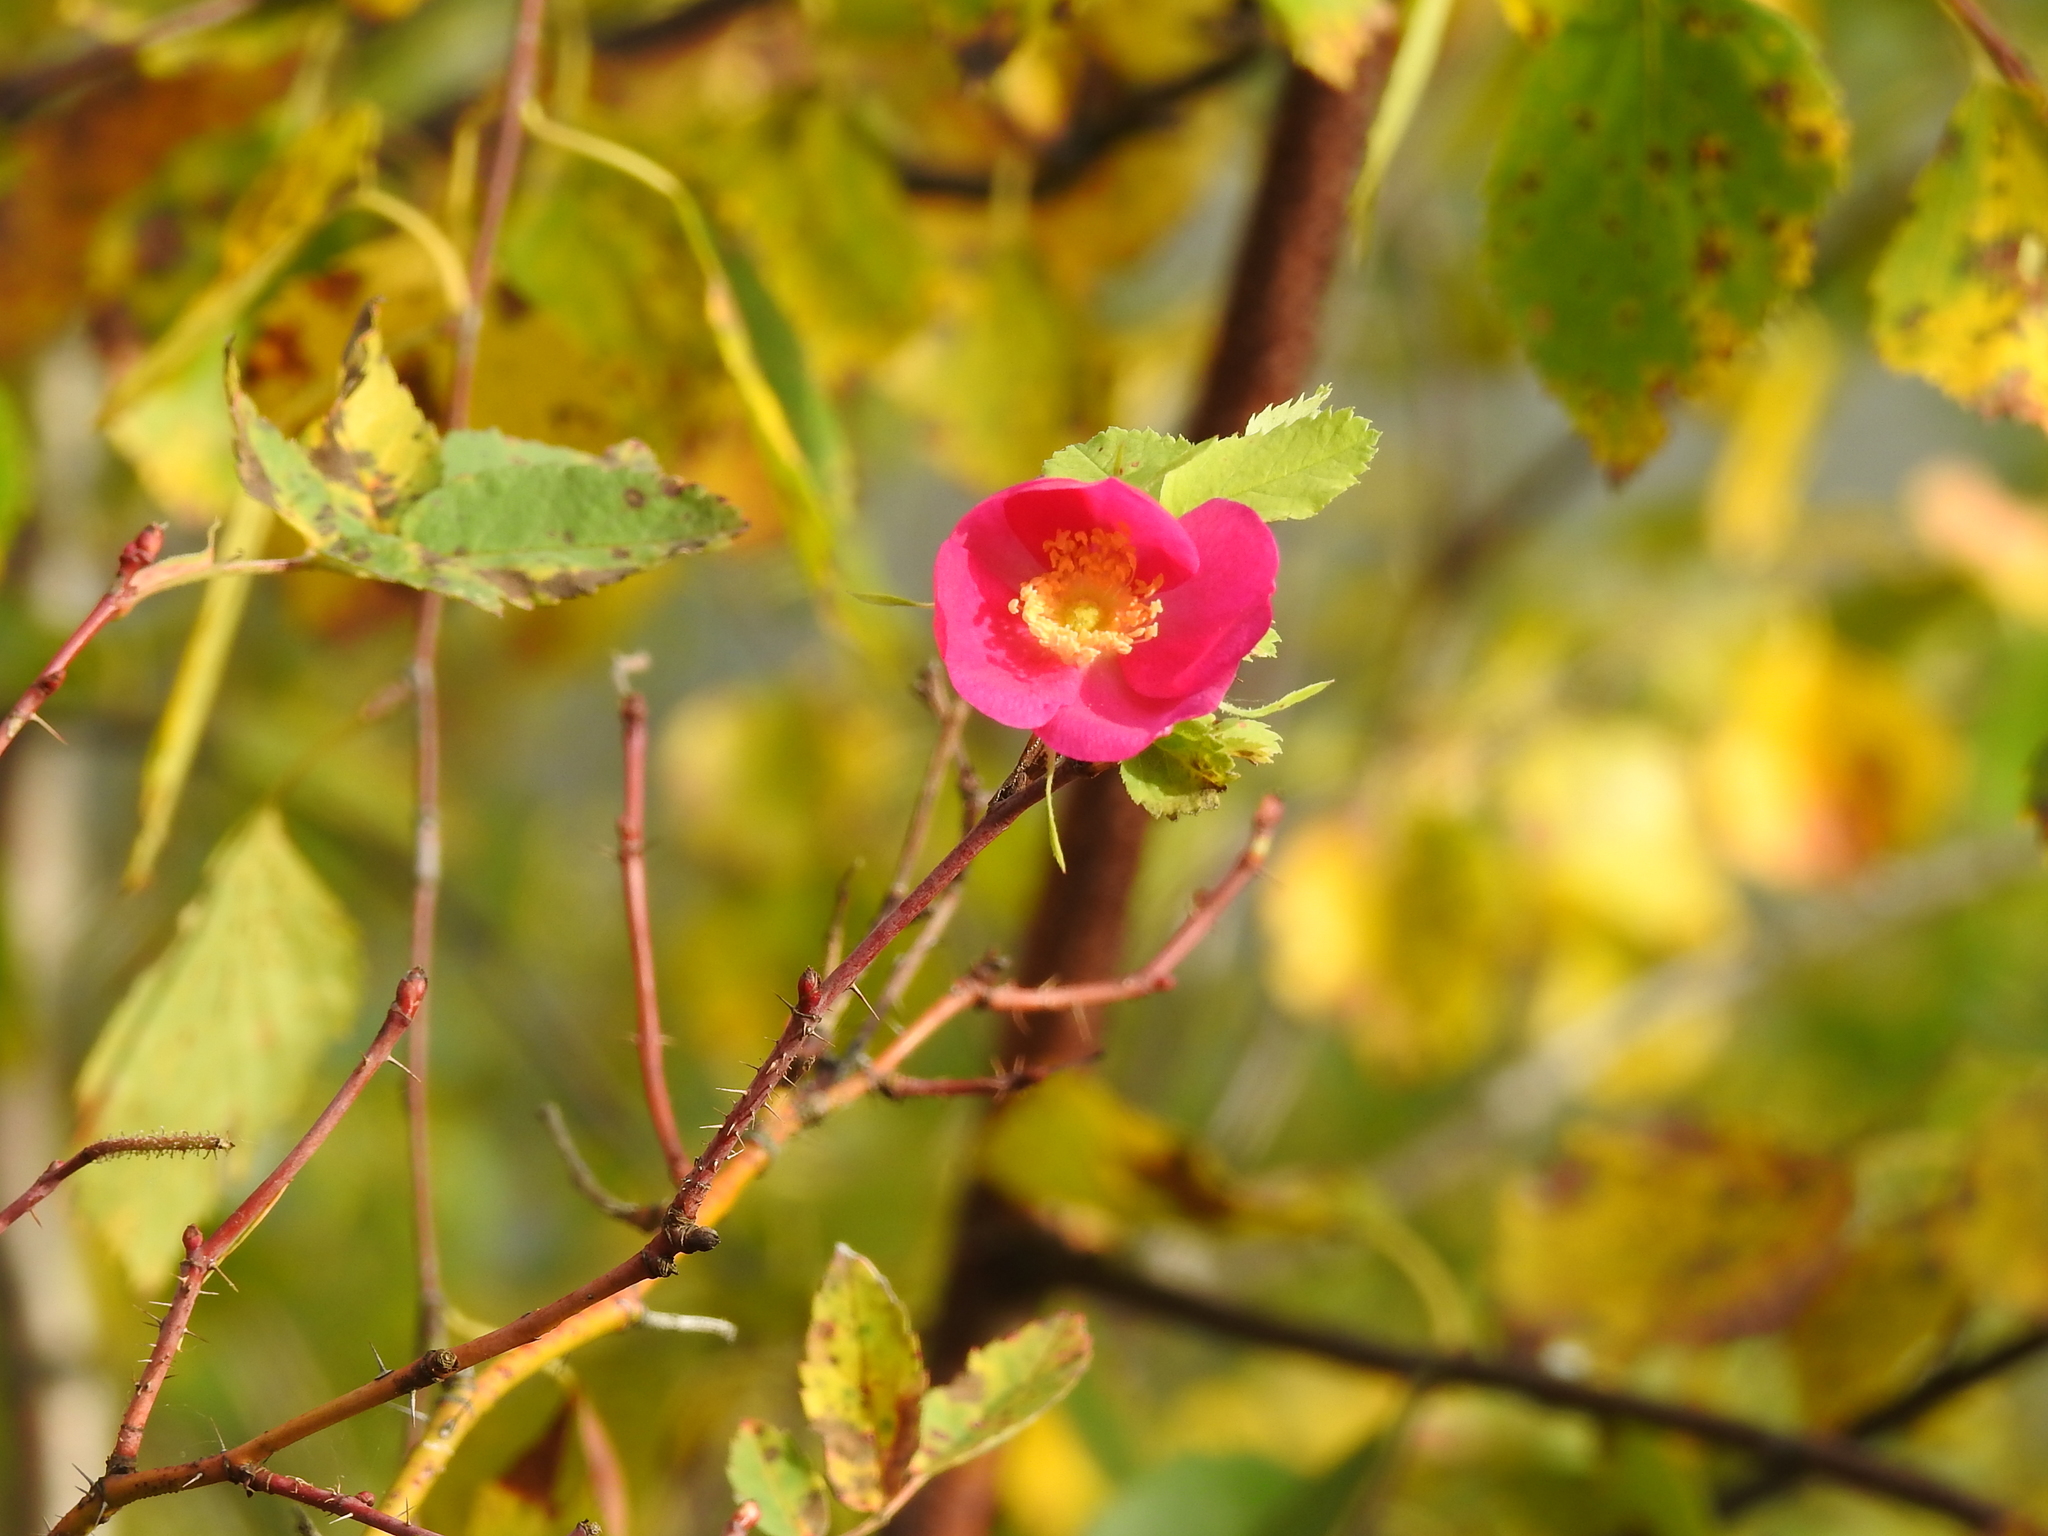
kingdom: Plantae
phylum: Tracheophyta
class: Magnoliopsida
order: Rosales
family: Rosaceae
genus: Rosa
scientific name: Rosa acicularis
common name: Prickly rose
